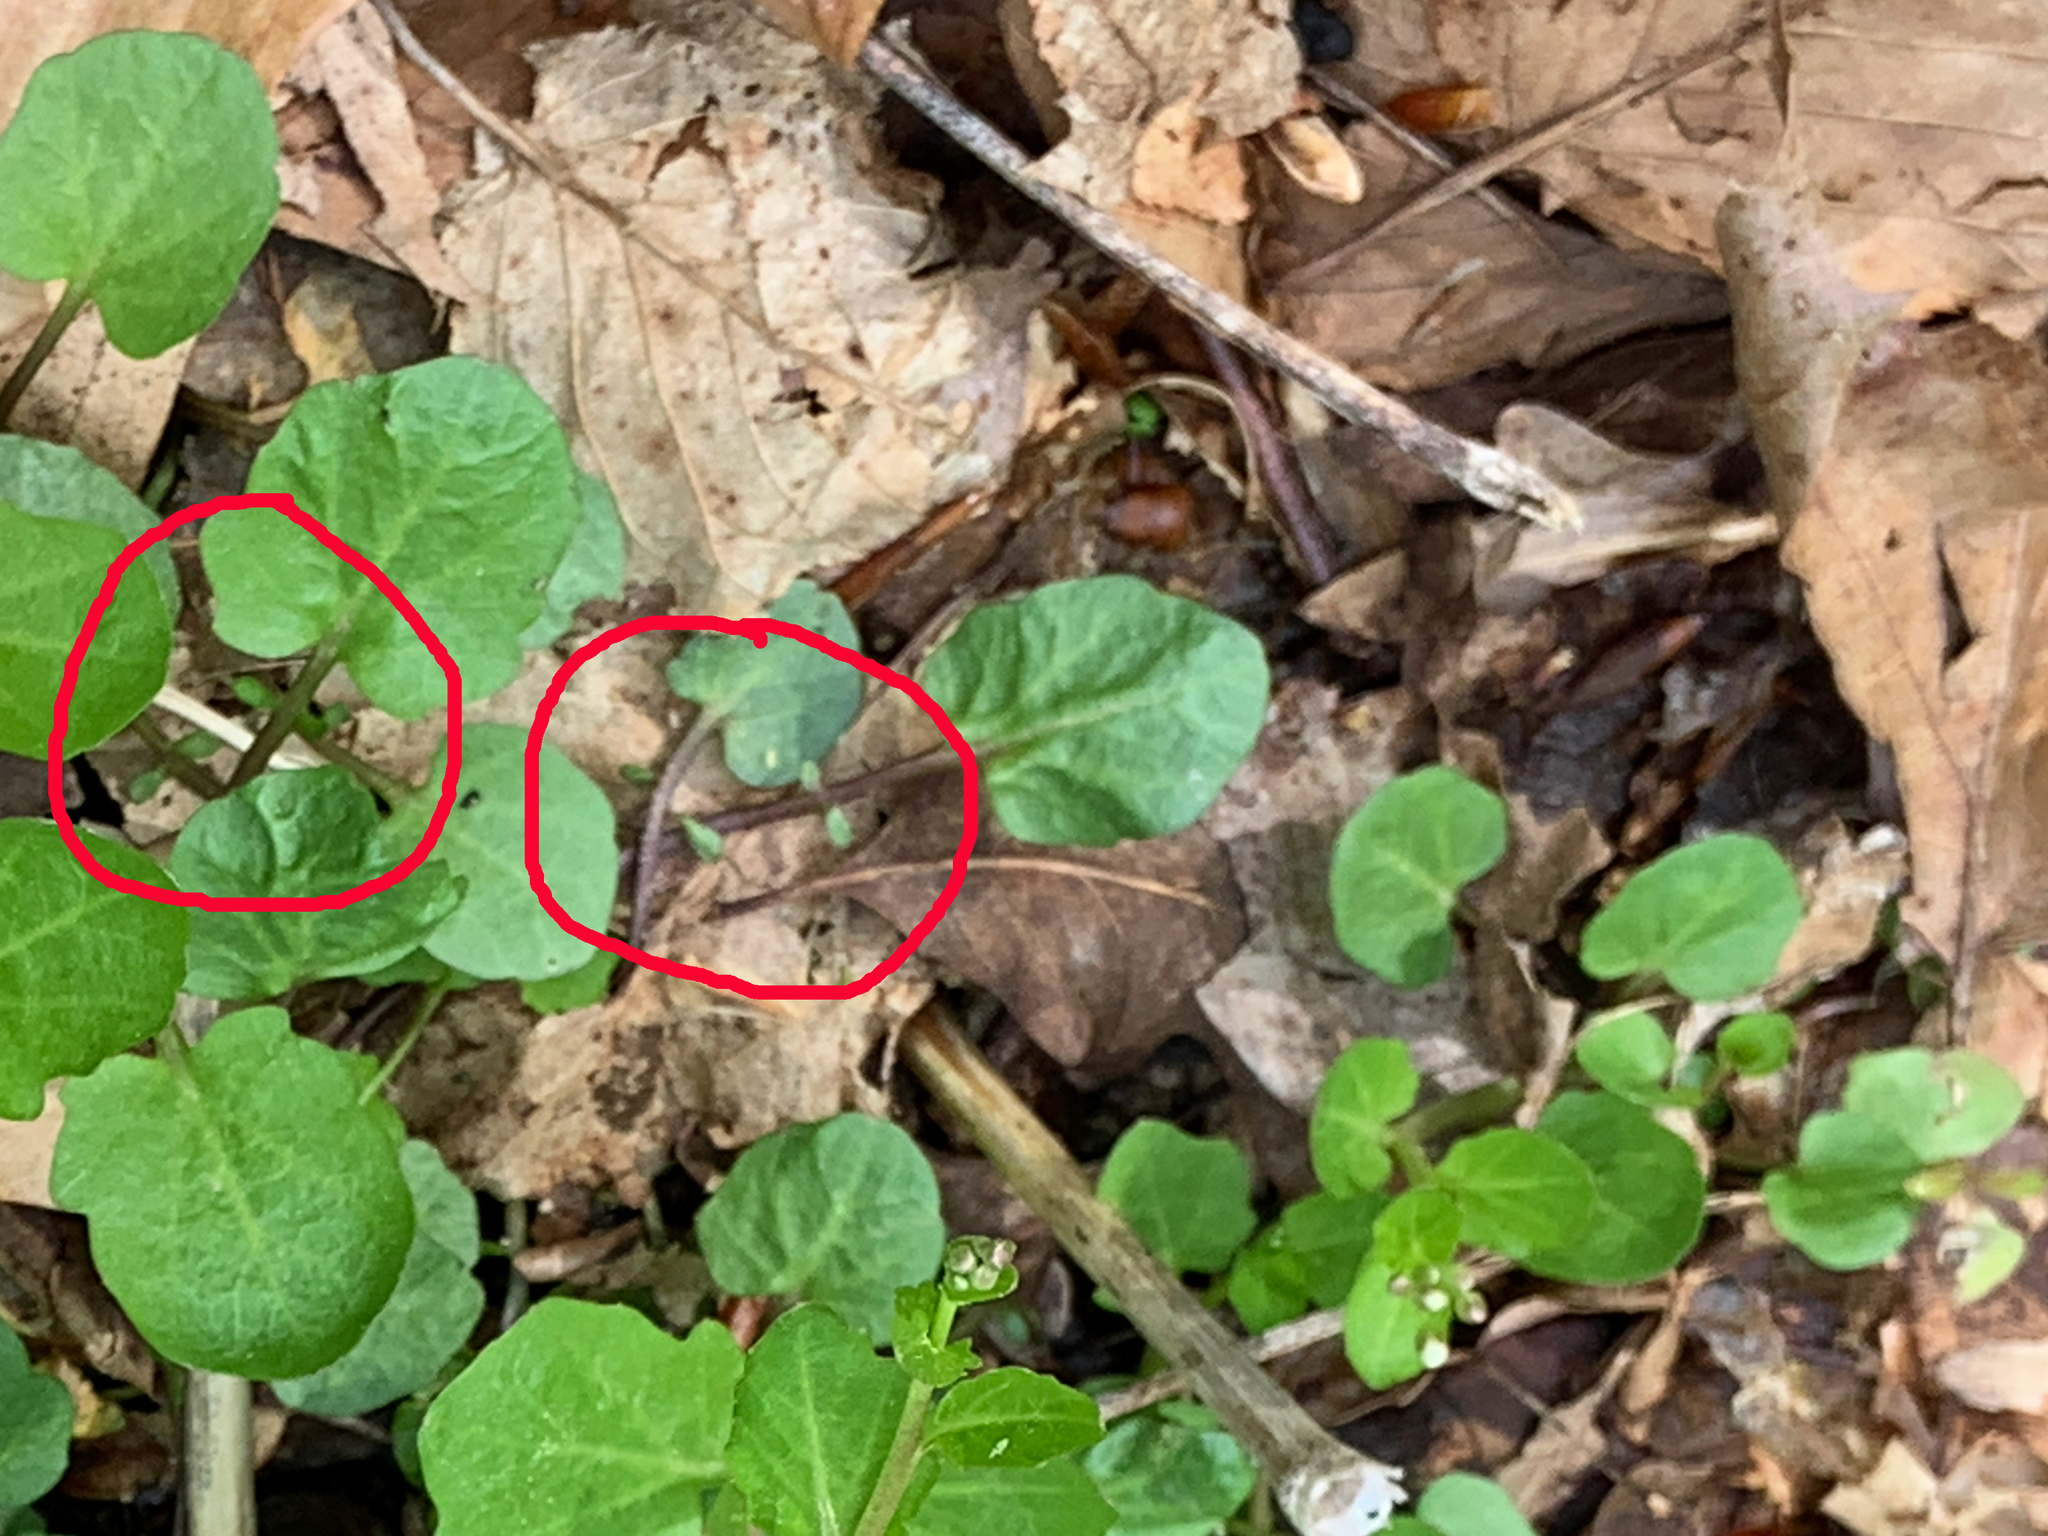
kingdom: Plantae
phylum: Tracheophyta
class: Magnoliopsida
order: Brassicales
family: Brassicaceae
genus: Cardamine
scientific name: Cardamine rotundifolia
